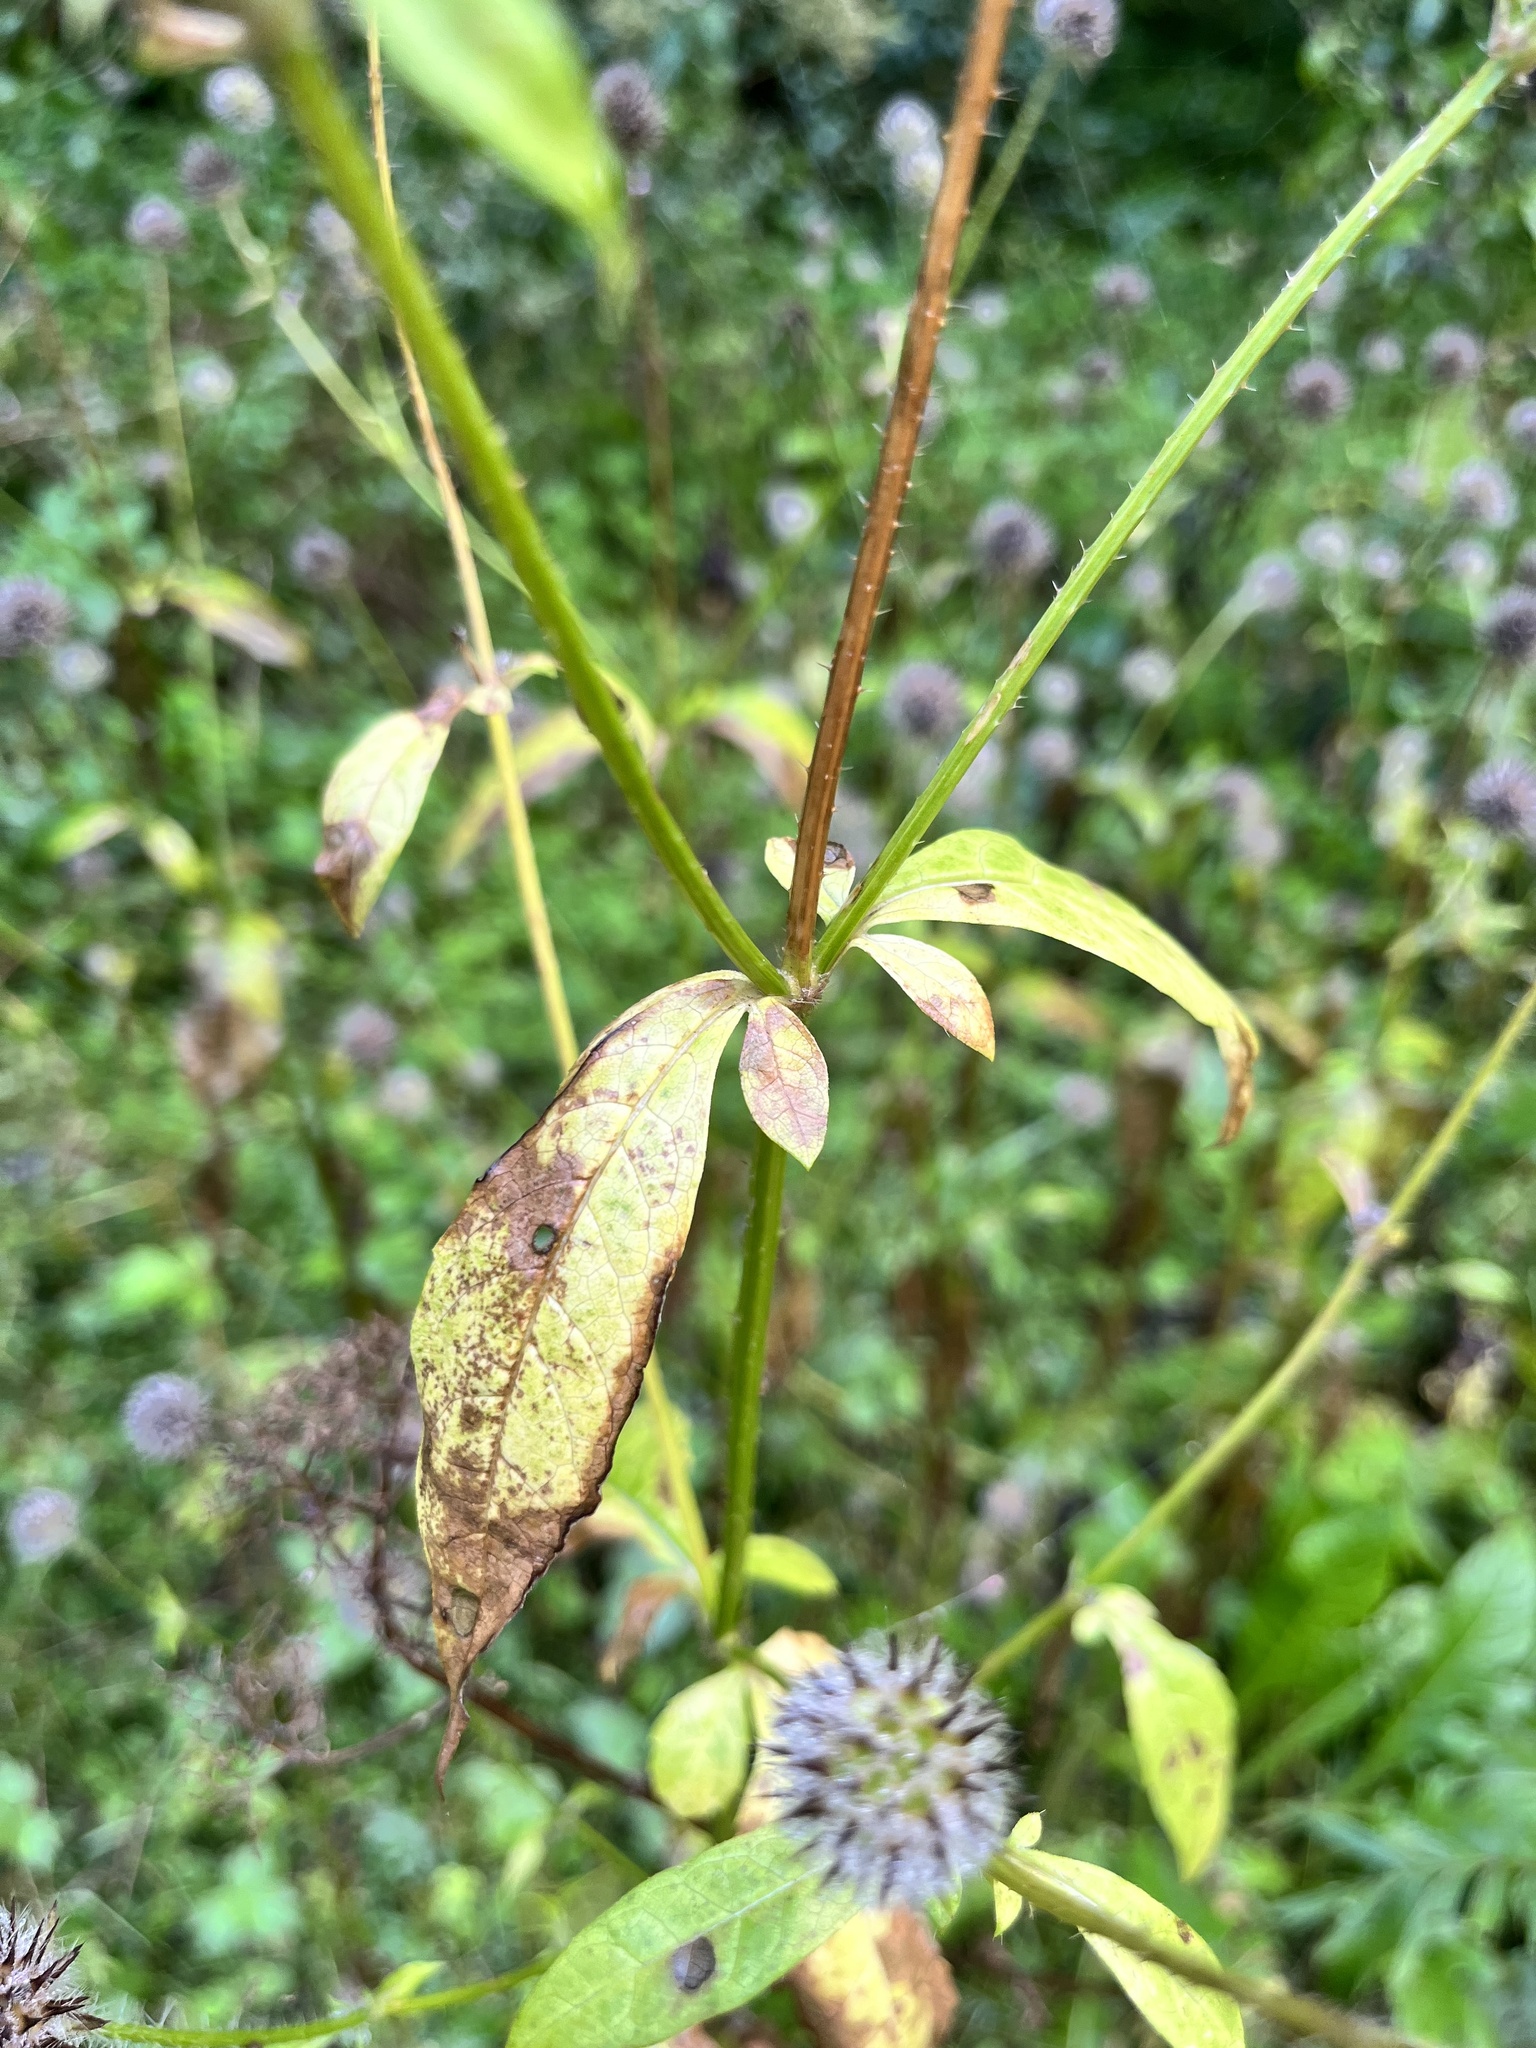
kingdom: Plantae
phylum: Tracheophyta
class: Magnoliopsida
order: Dipsacales
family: Caprifoliaceae
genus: Dipsacus
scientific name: Dipsacus pilosus
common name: Small teasel
